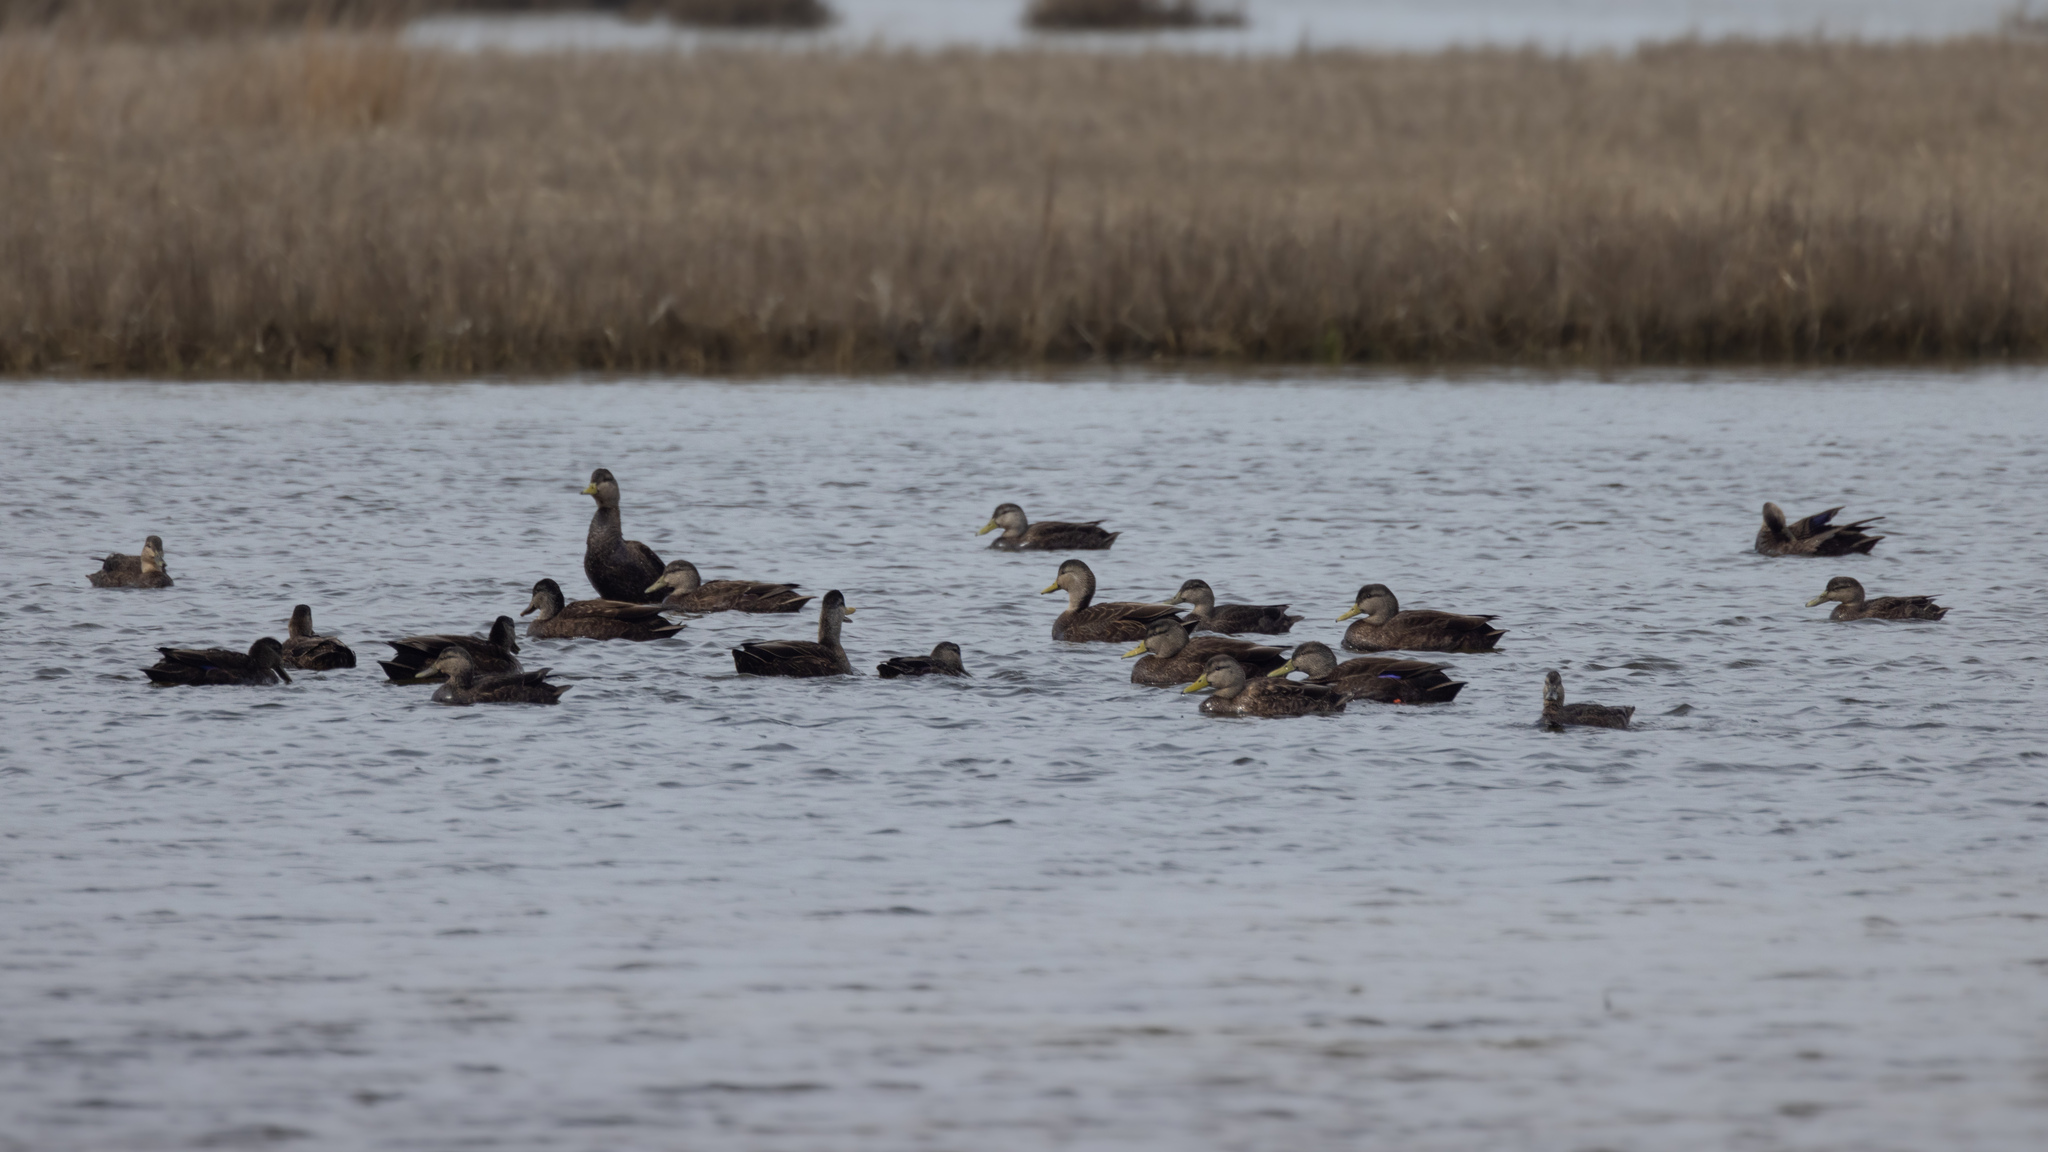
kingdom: Animalia
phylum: Chordata
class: Aves
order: Anseriformes
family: Anatidae
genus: Anas
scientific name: Anas rubripes
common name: American black duck
